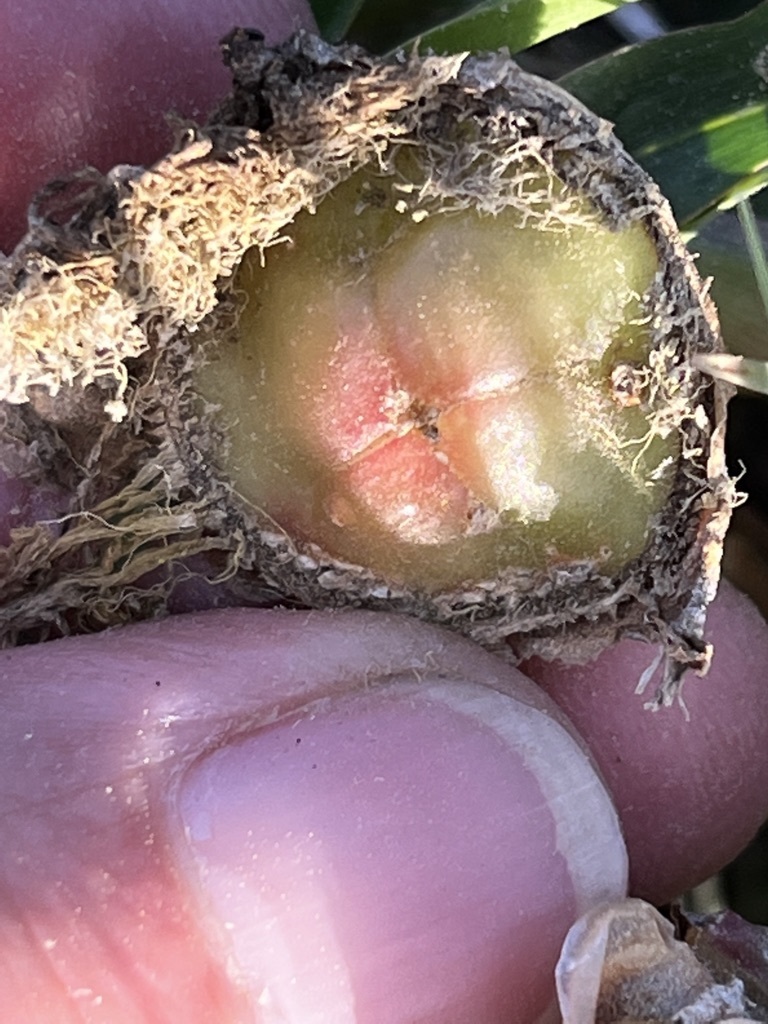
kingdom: Plantae
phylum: Tracheophyta
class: Magnoliopsida
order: Caryophyllales
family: Aizoaceae
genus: Skiatophytum
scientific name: Skiatophytum skiatophytoides
